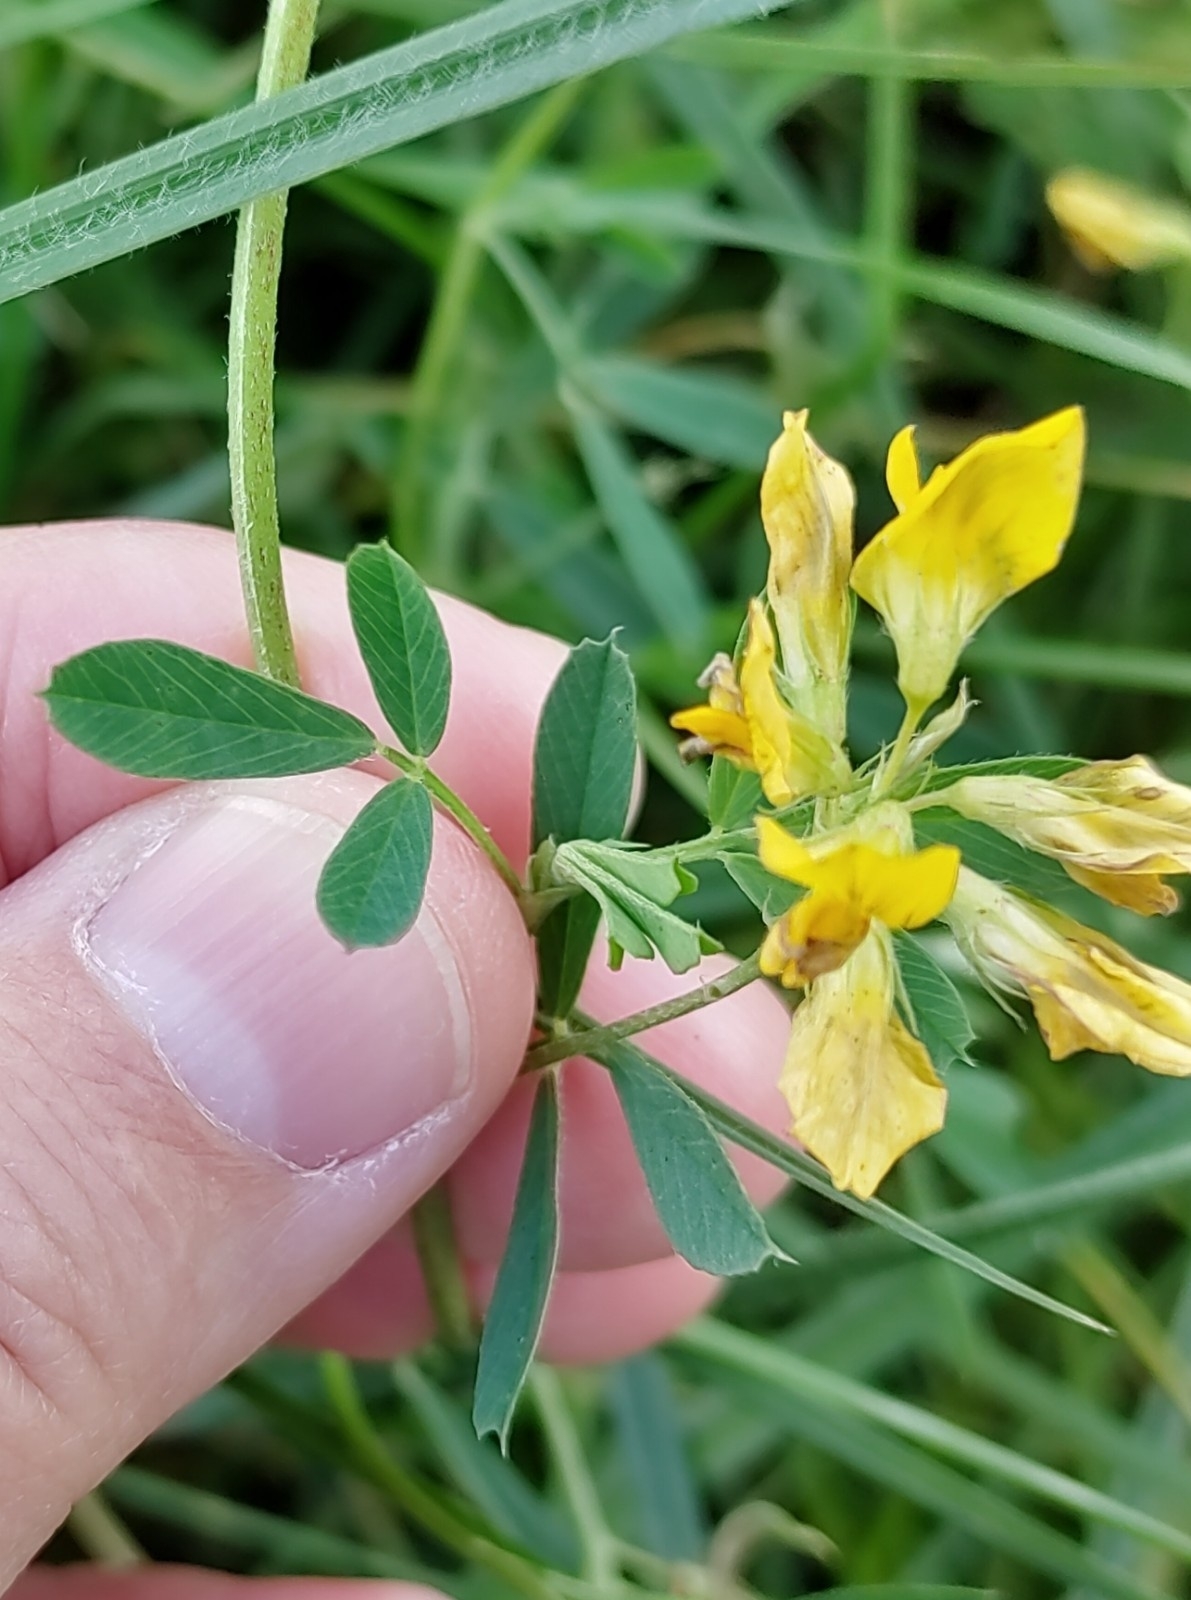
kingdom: Plantae
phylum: Tracheophyta
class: Magnoliopsida
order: Fabales
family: Fabaceae
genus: Medicago
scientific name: Medicago varia
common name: Sand lucerne
